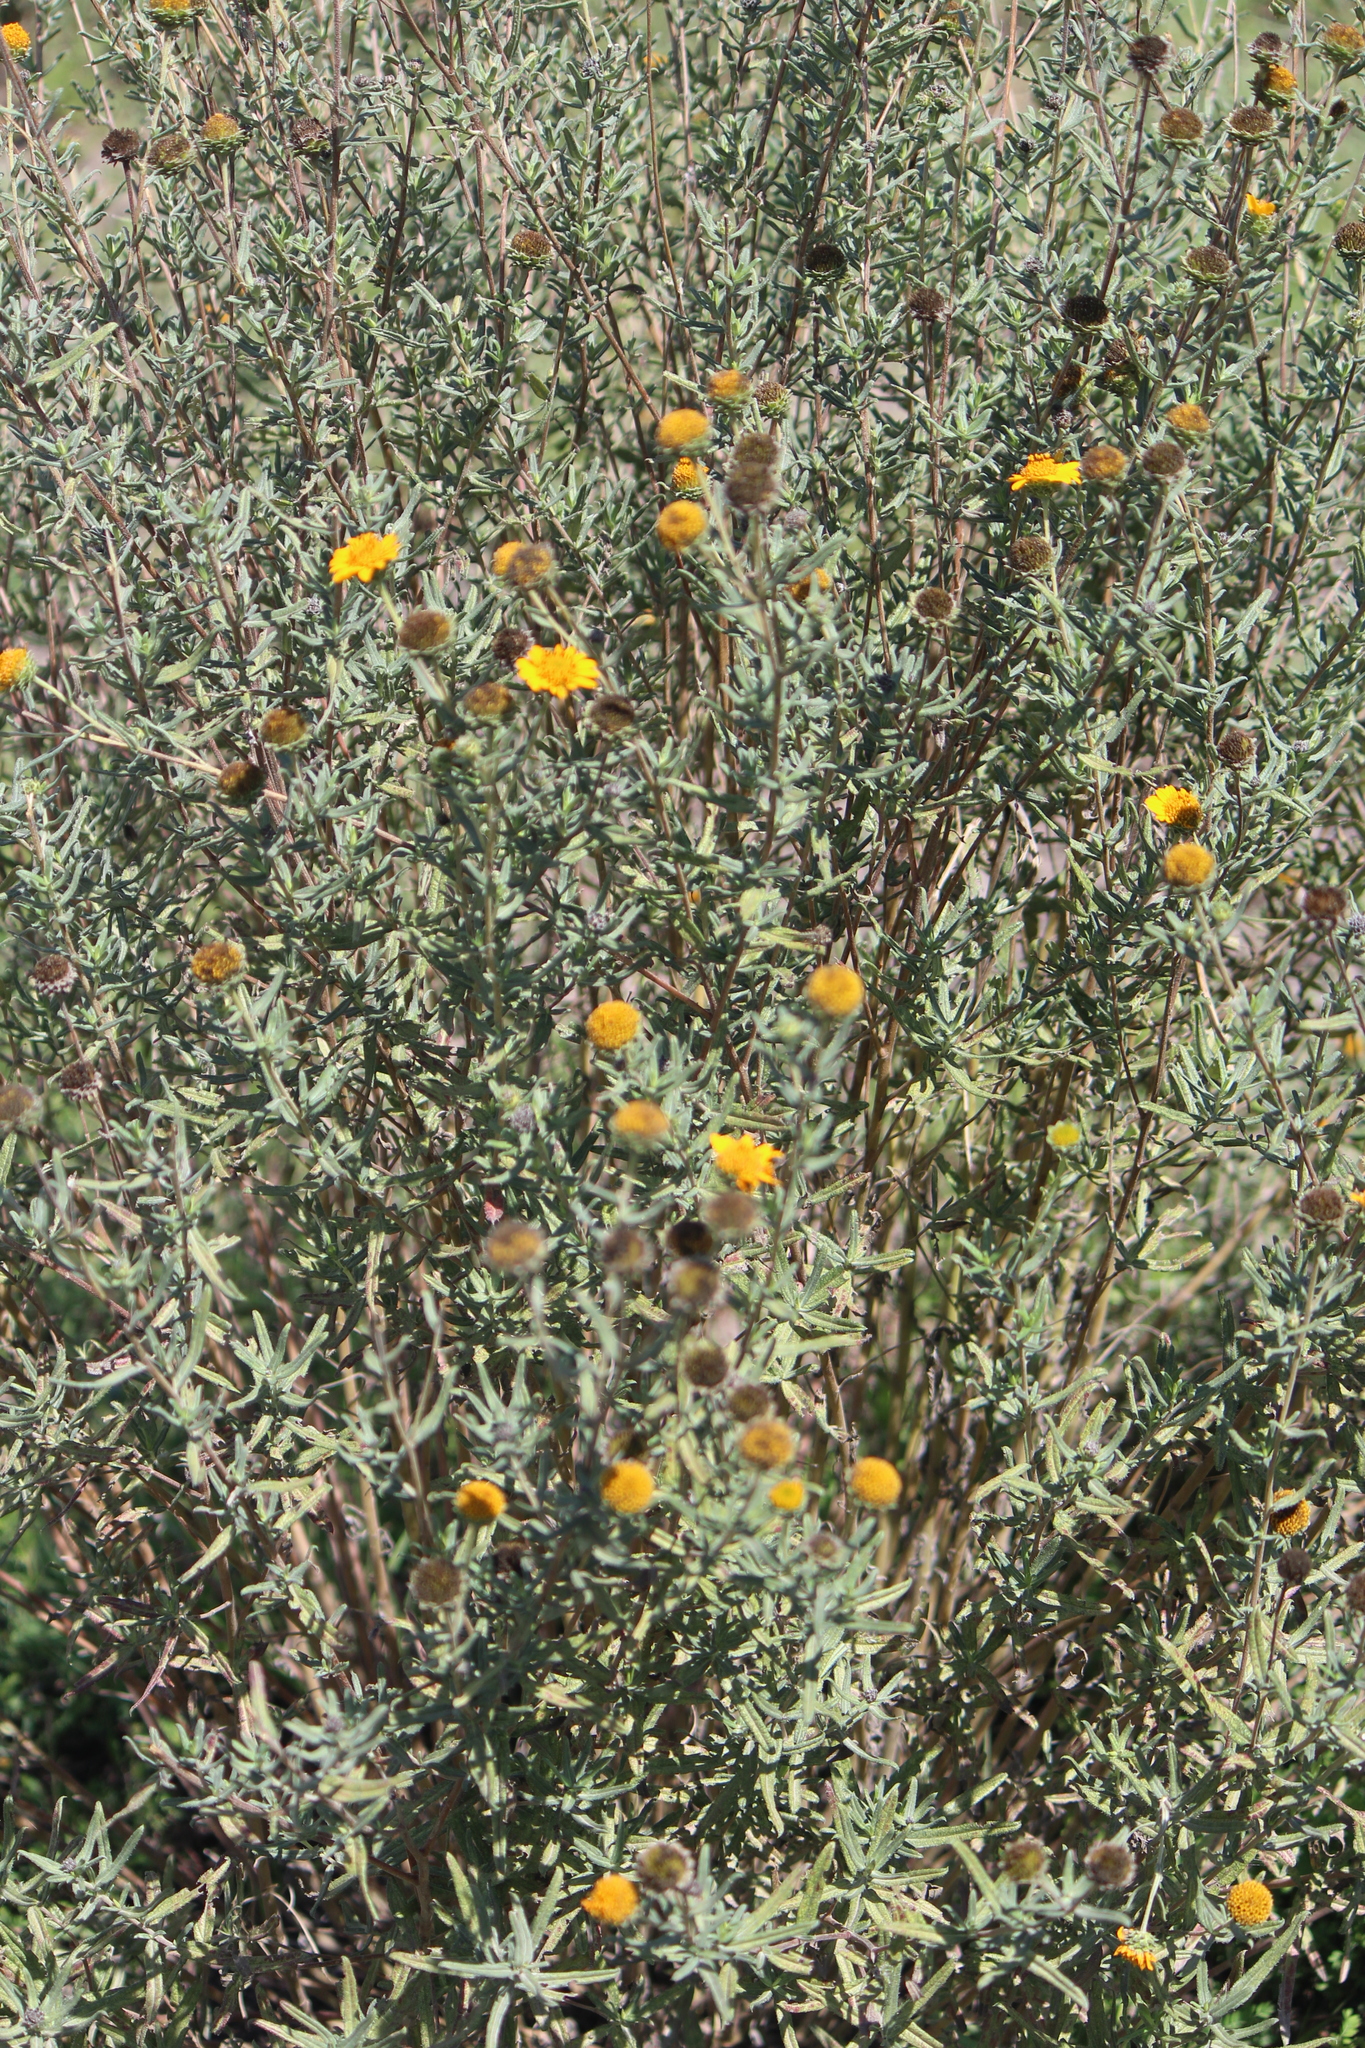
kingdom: Plantae
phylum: Tracheophyta
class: Magnoliopsida
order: Asterales
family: Asteraceae
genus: Aldama
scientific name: Aldama linearis
